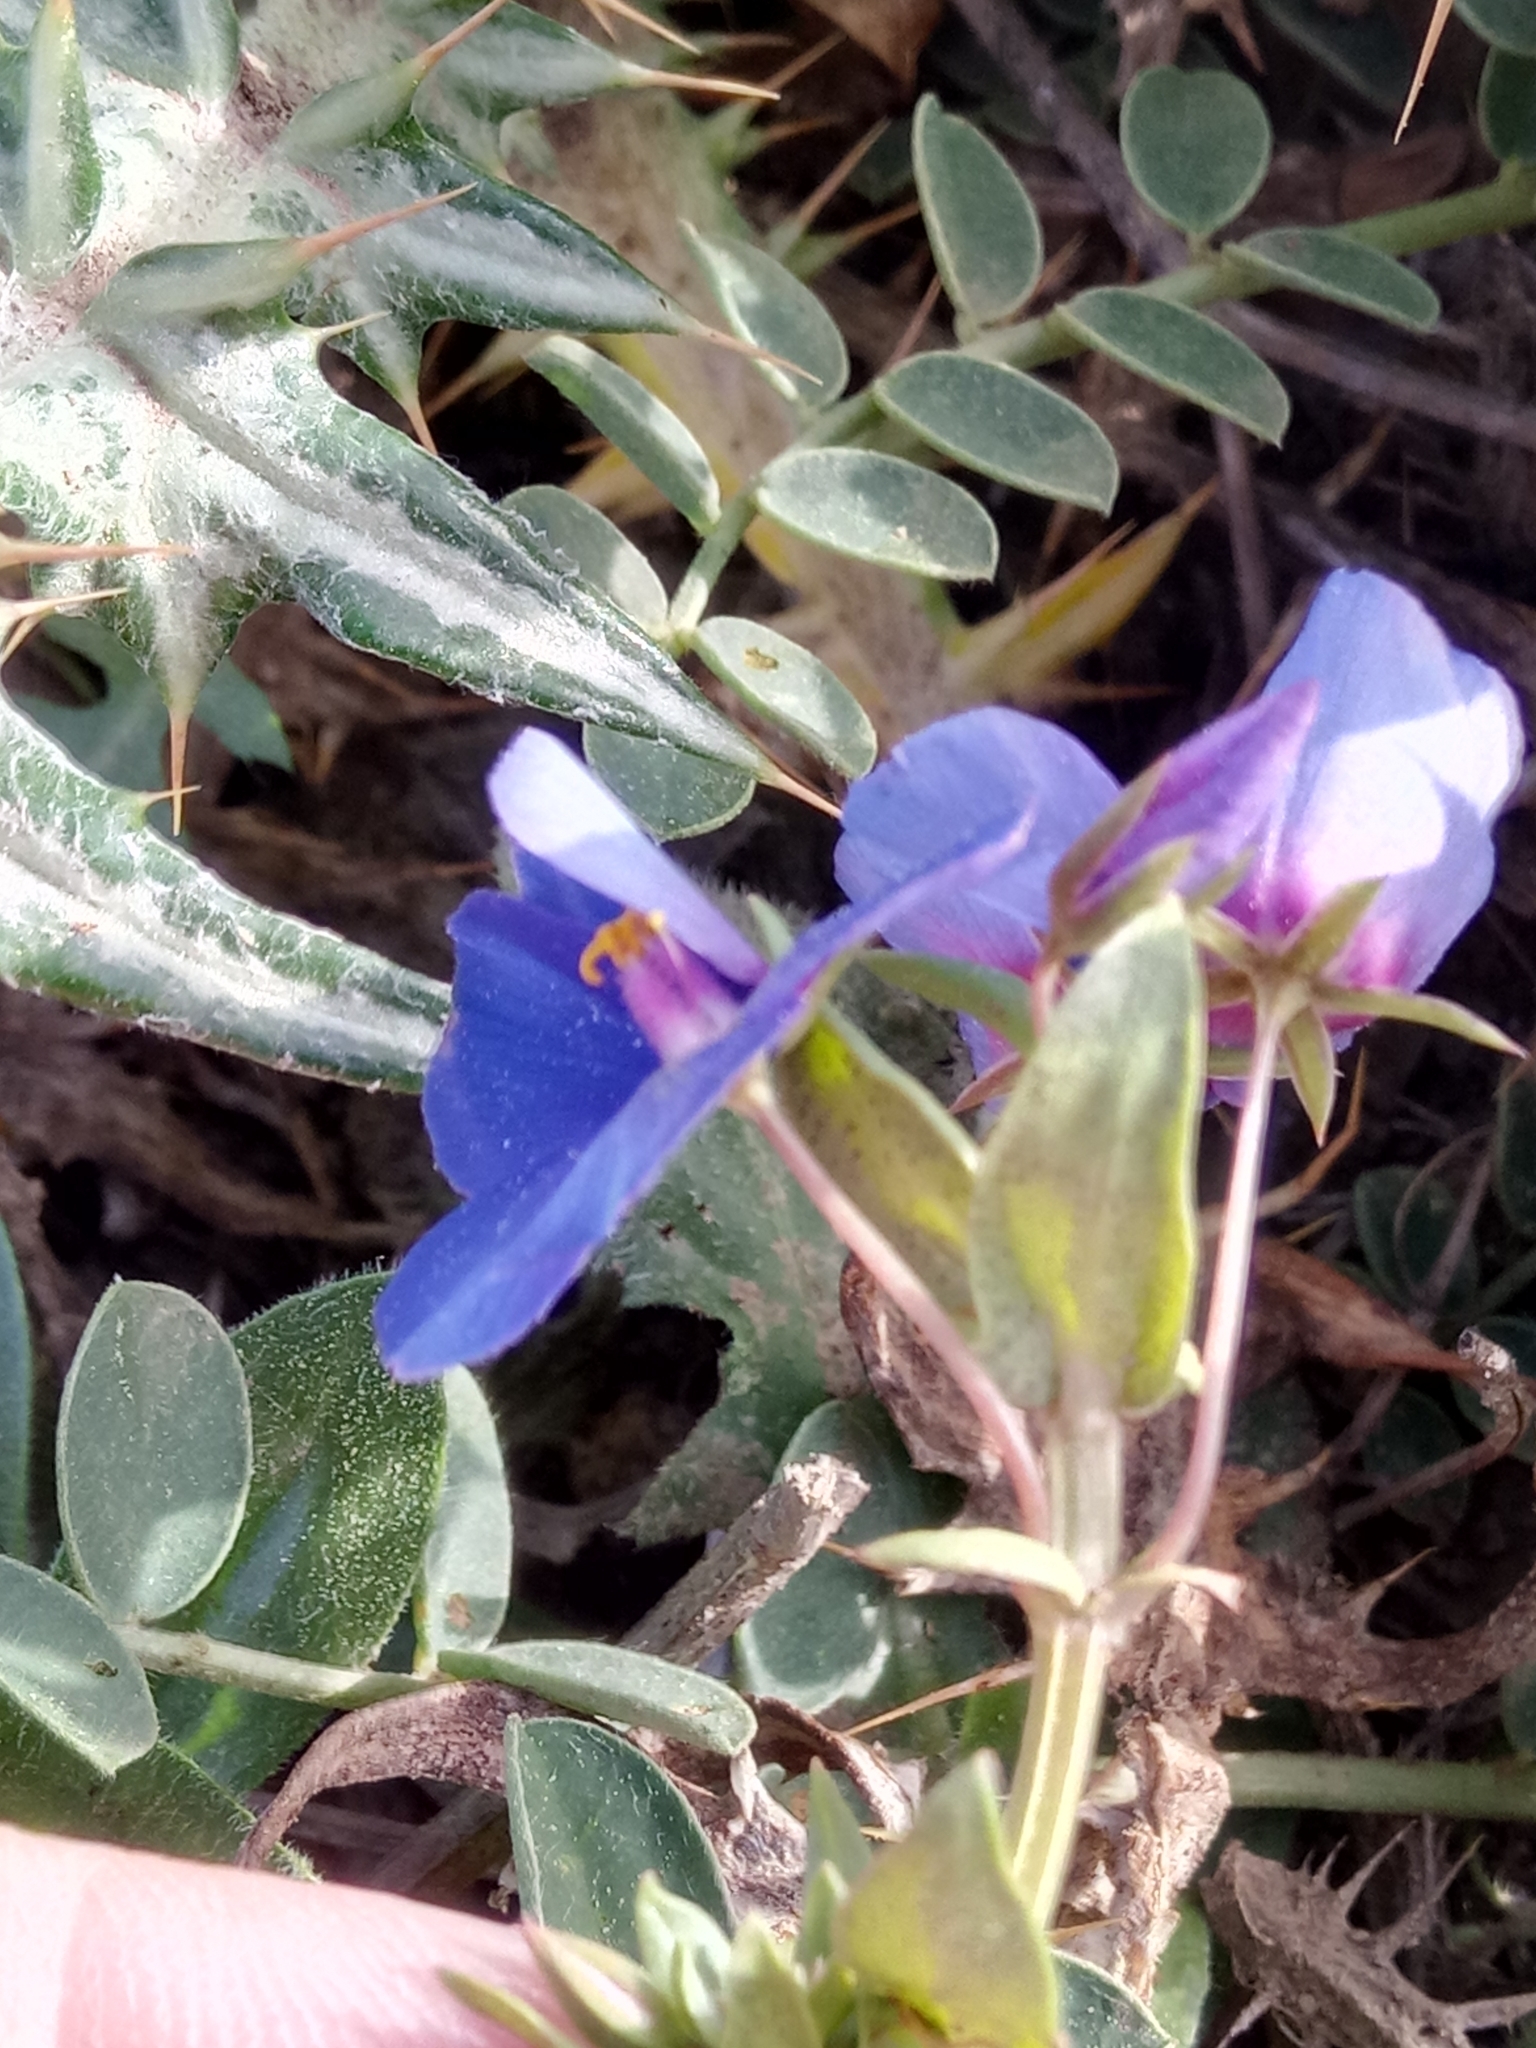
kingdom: Plantae
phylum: Tracheophyta
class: Magnoliopsida
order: Ericales
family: Primulaceae
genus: Lysimachia
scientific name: Lysimachia monelli
